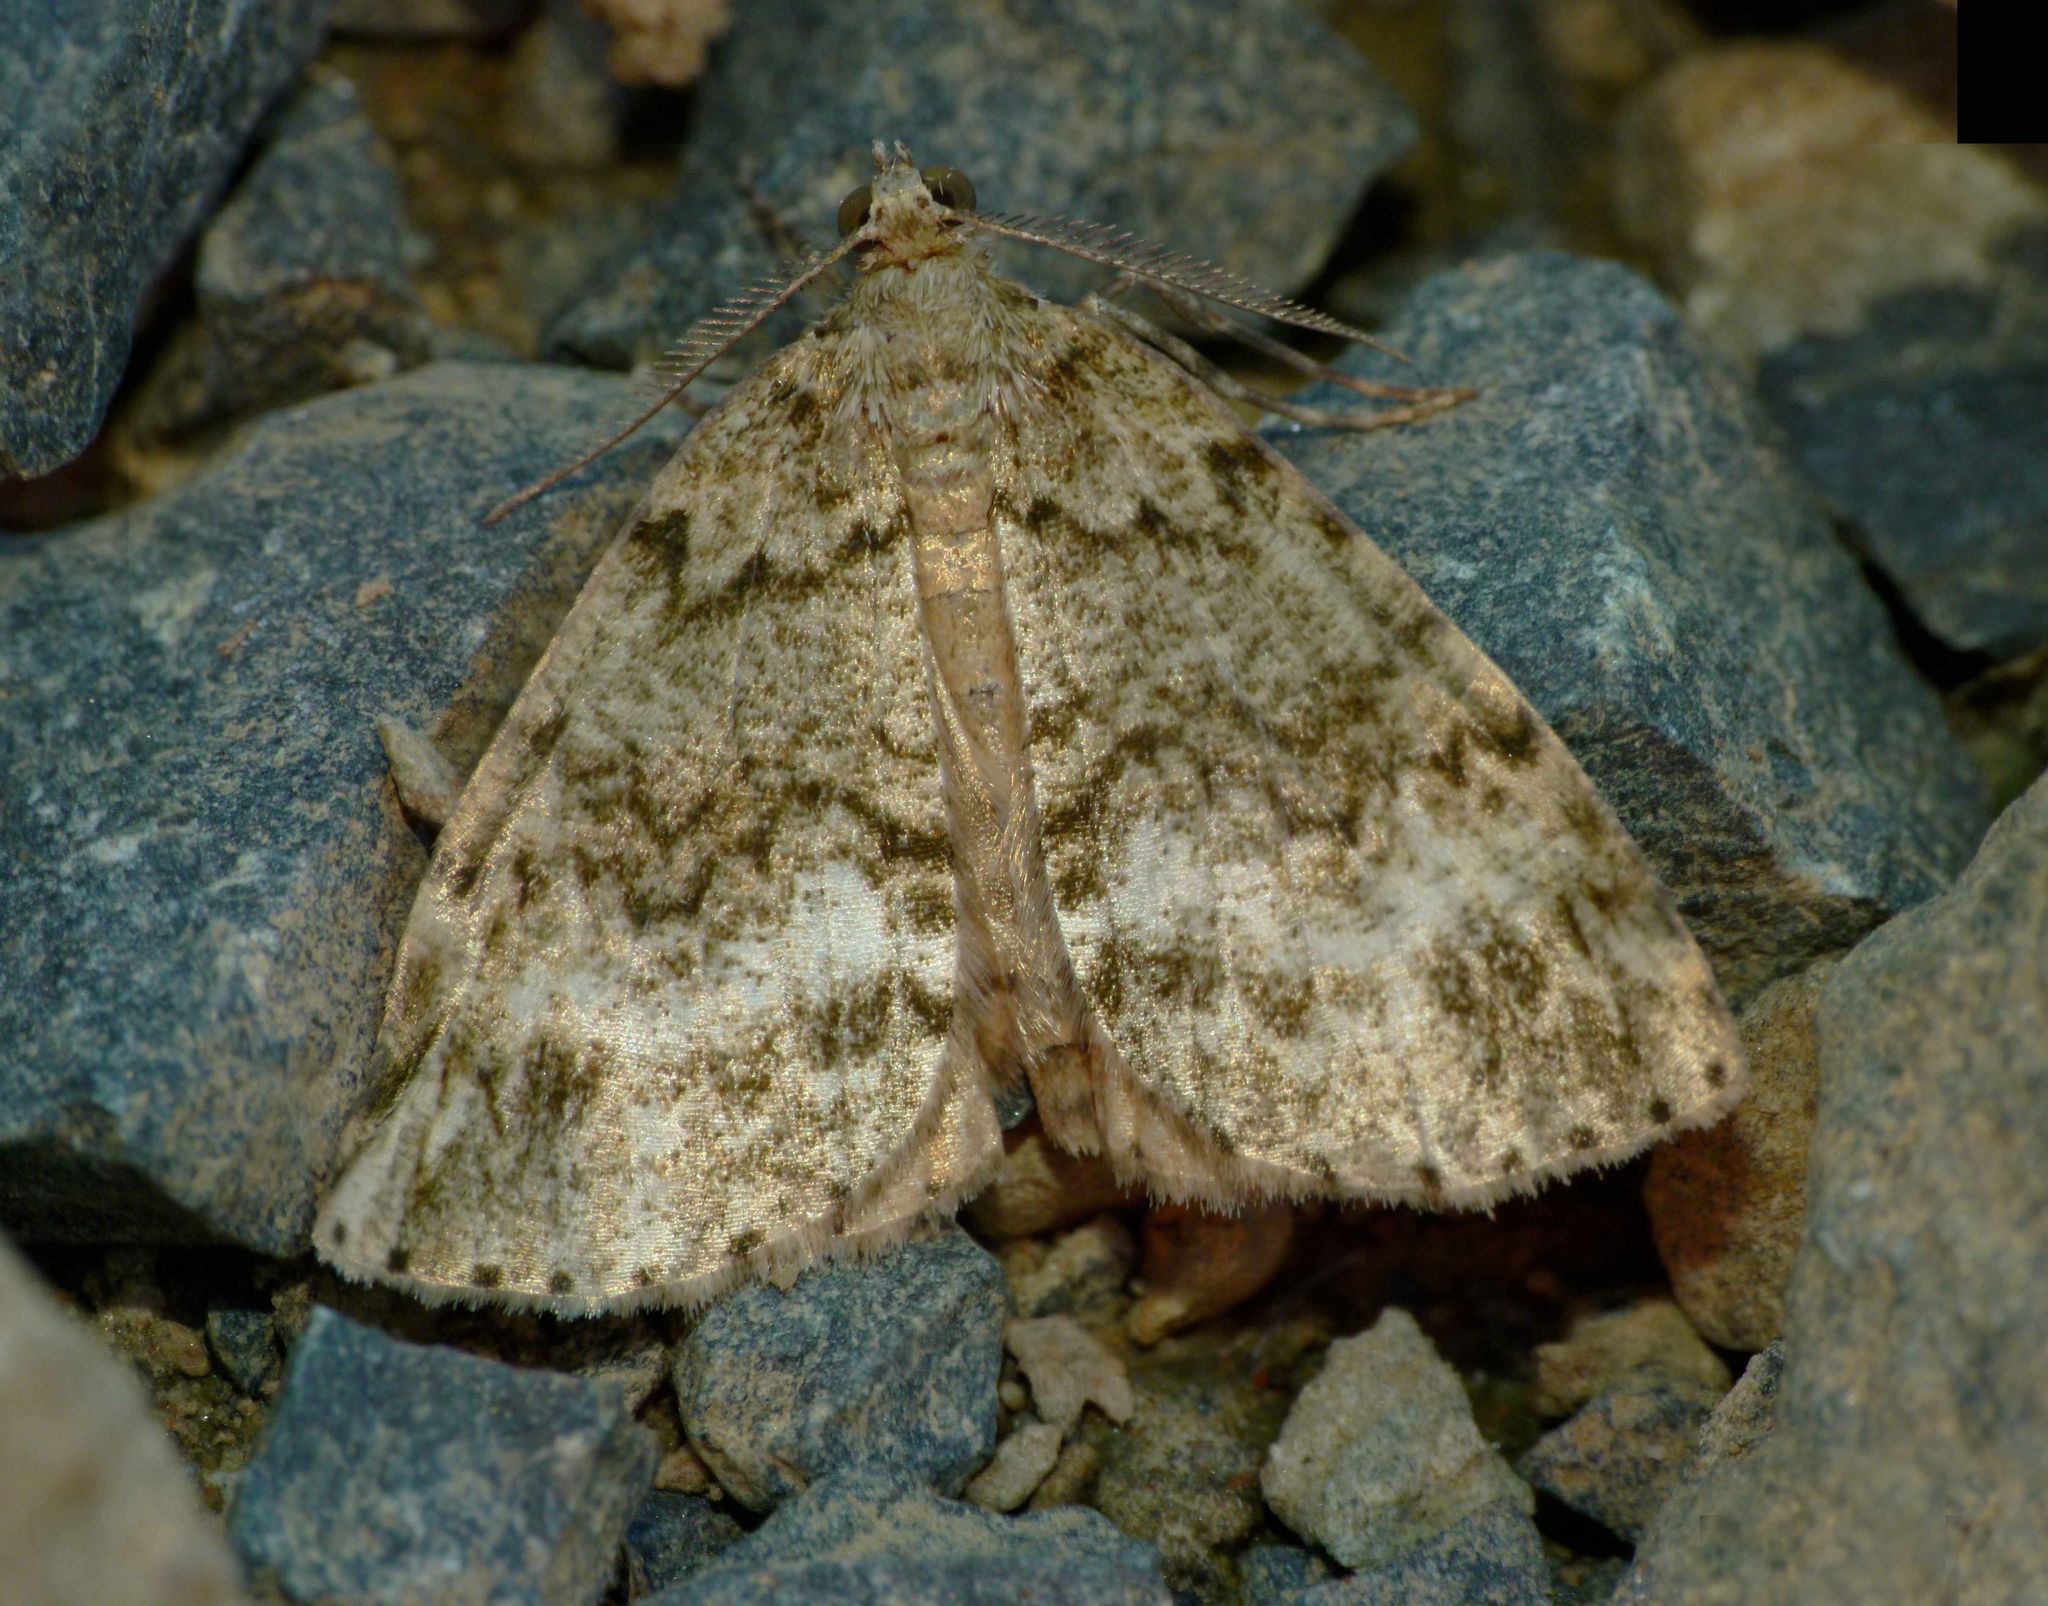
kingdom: Animalia
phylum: Arthropoda
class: Insecta
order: Lepidoptera
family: Geometridae
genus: Pseudocoremia
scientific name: Pseudocoremia indistincta
